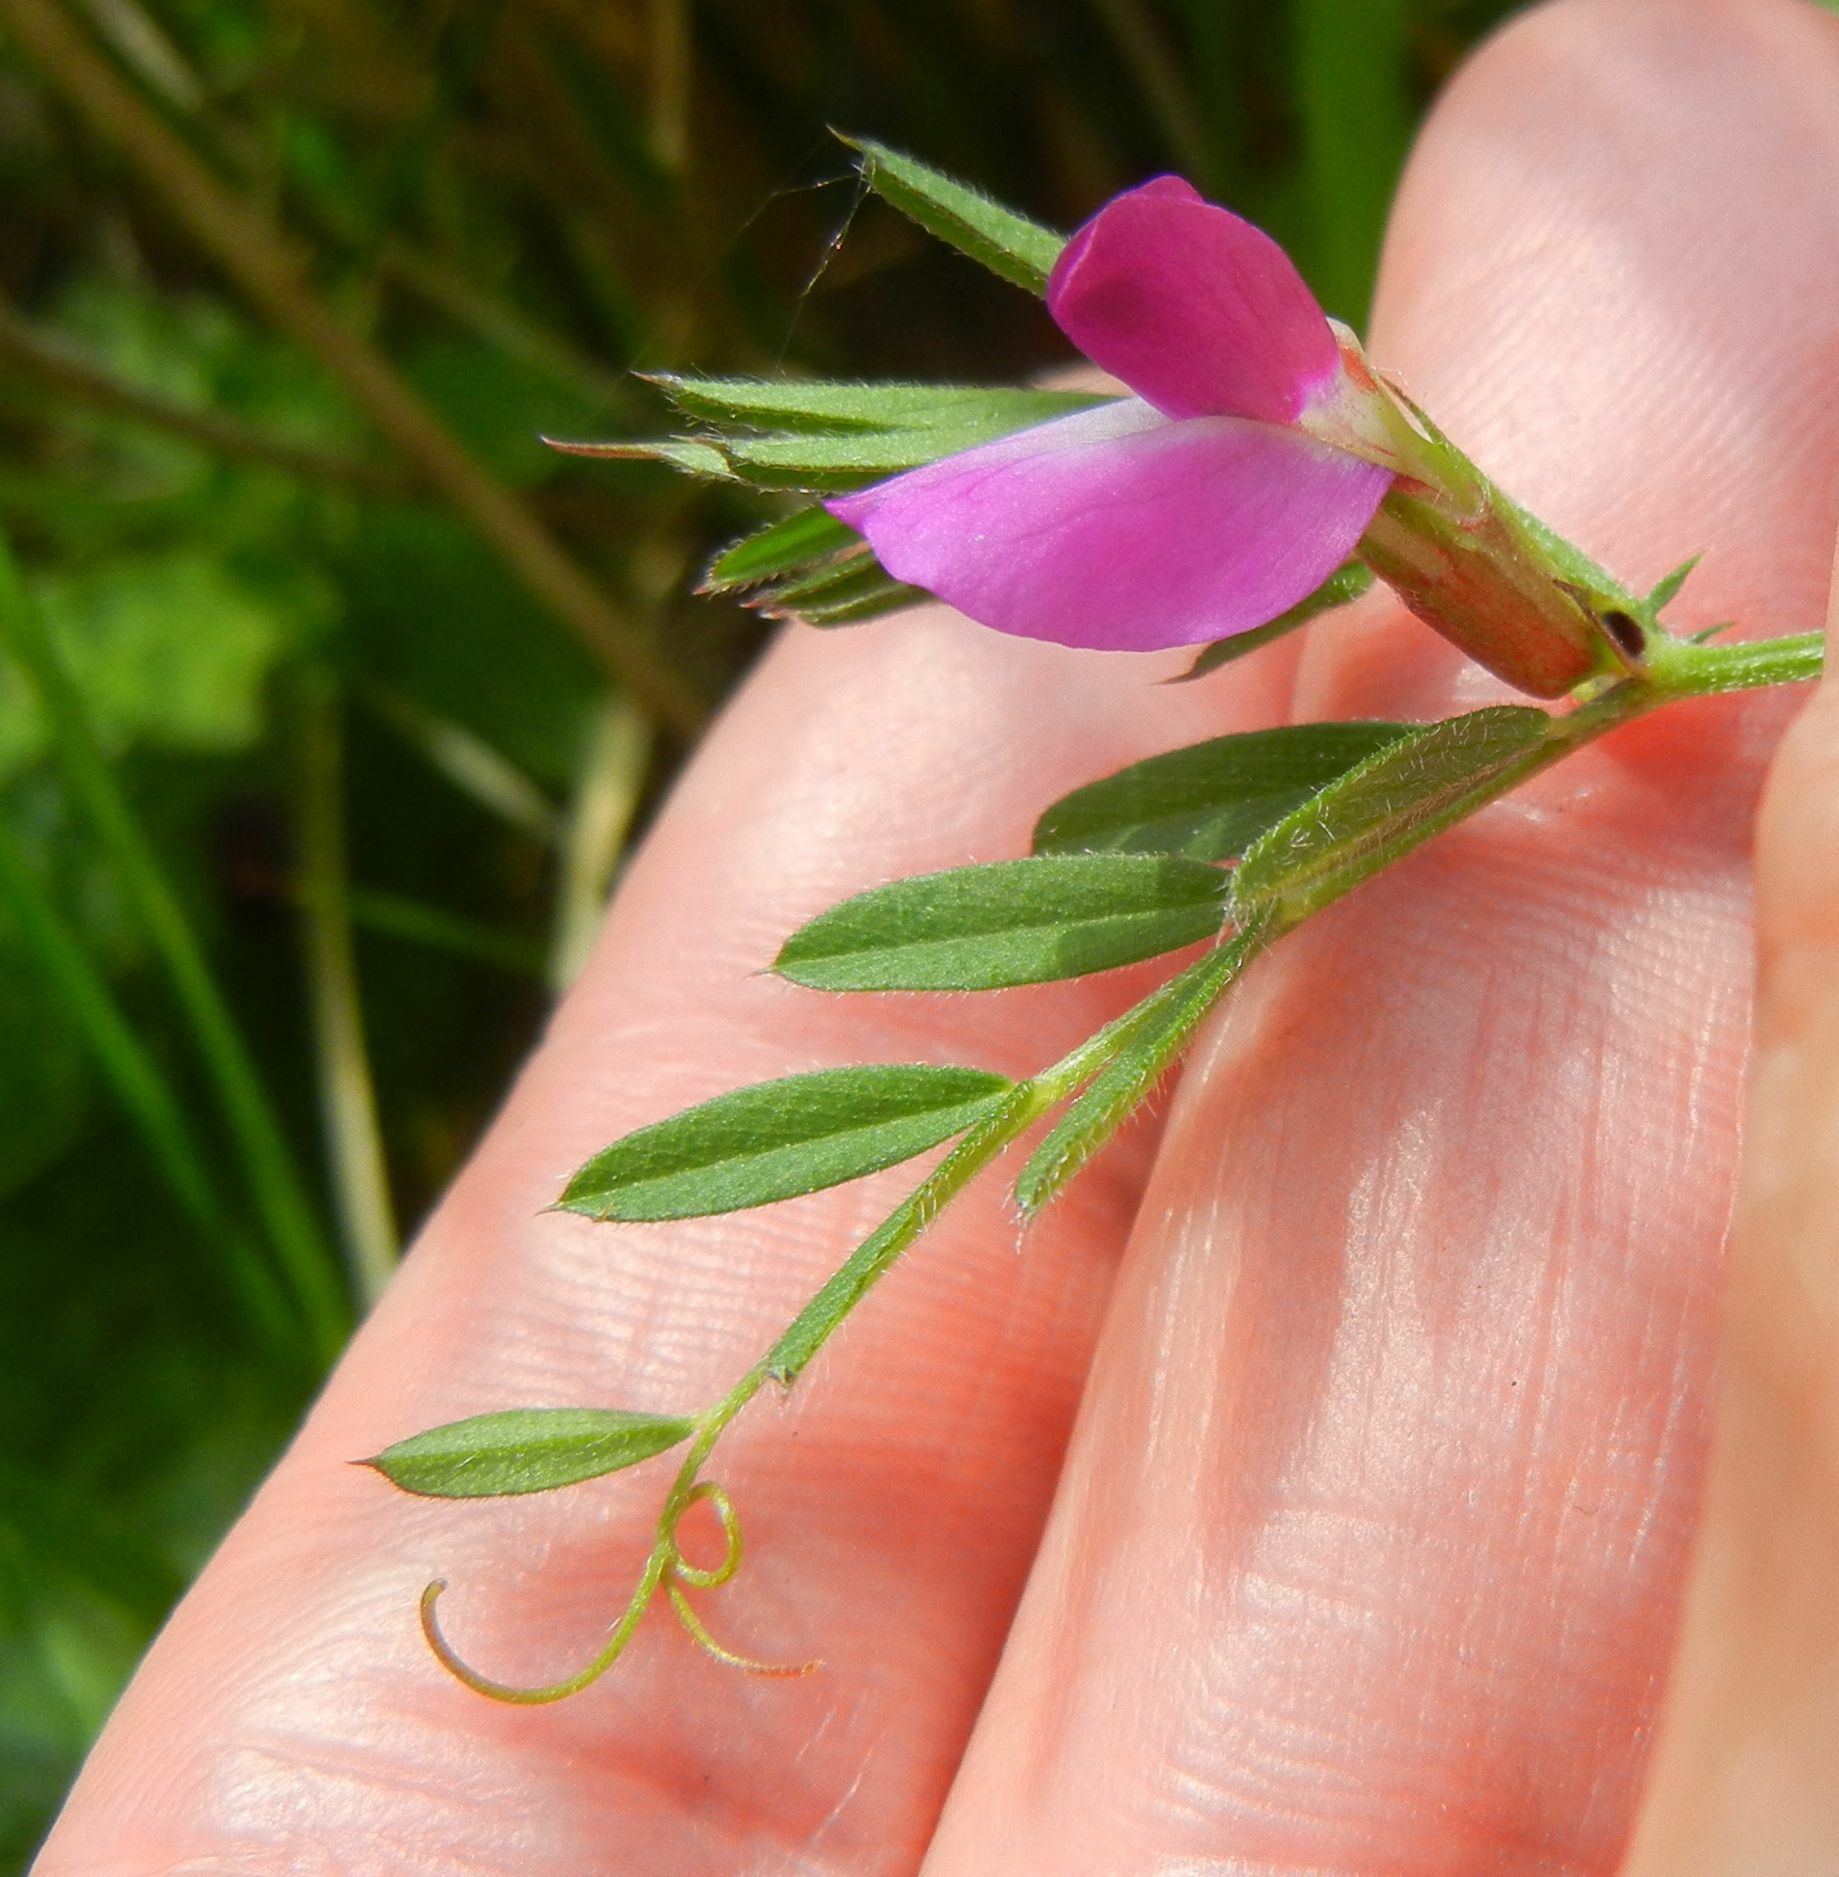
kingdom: Plantae
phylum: Tracheophyta
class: Magnoliopsida
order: Fabales
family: Fabaceae
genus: Vicia
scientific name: Vicia sativa
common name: Garden vetch
